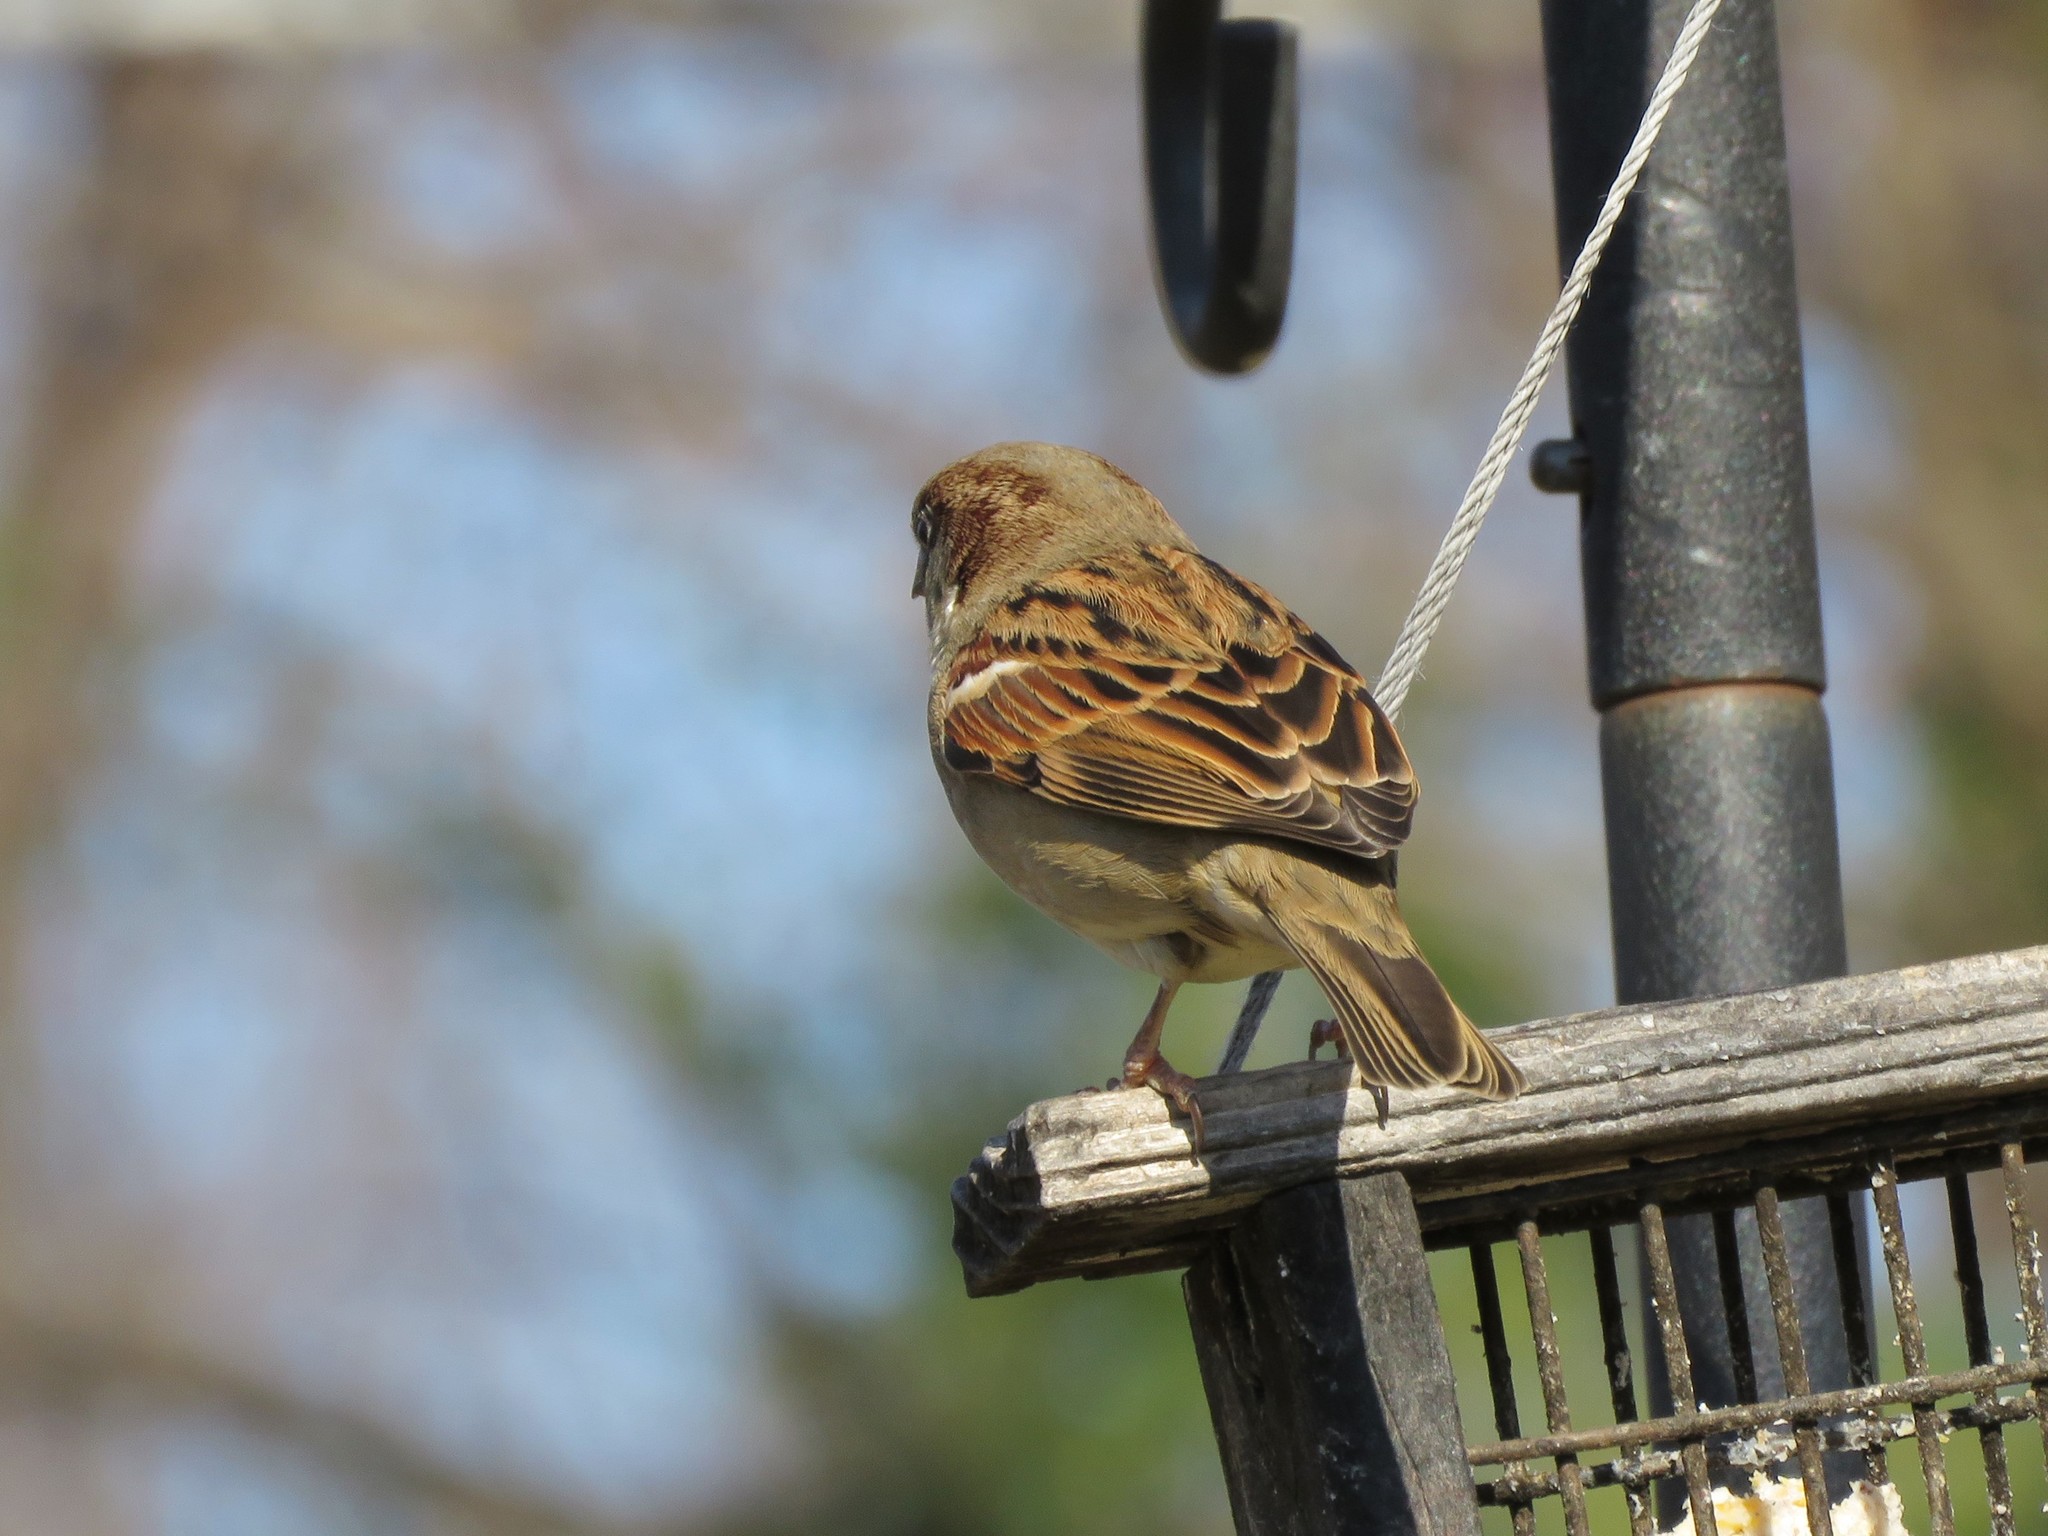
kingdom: Animalia
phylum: Chordata
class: Aves
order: Passeriformes
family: Passeridae
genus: Passer
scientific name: Passer domesticus
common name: House sparrow
